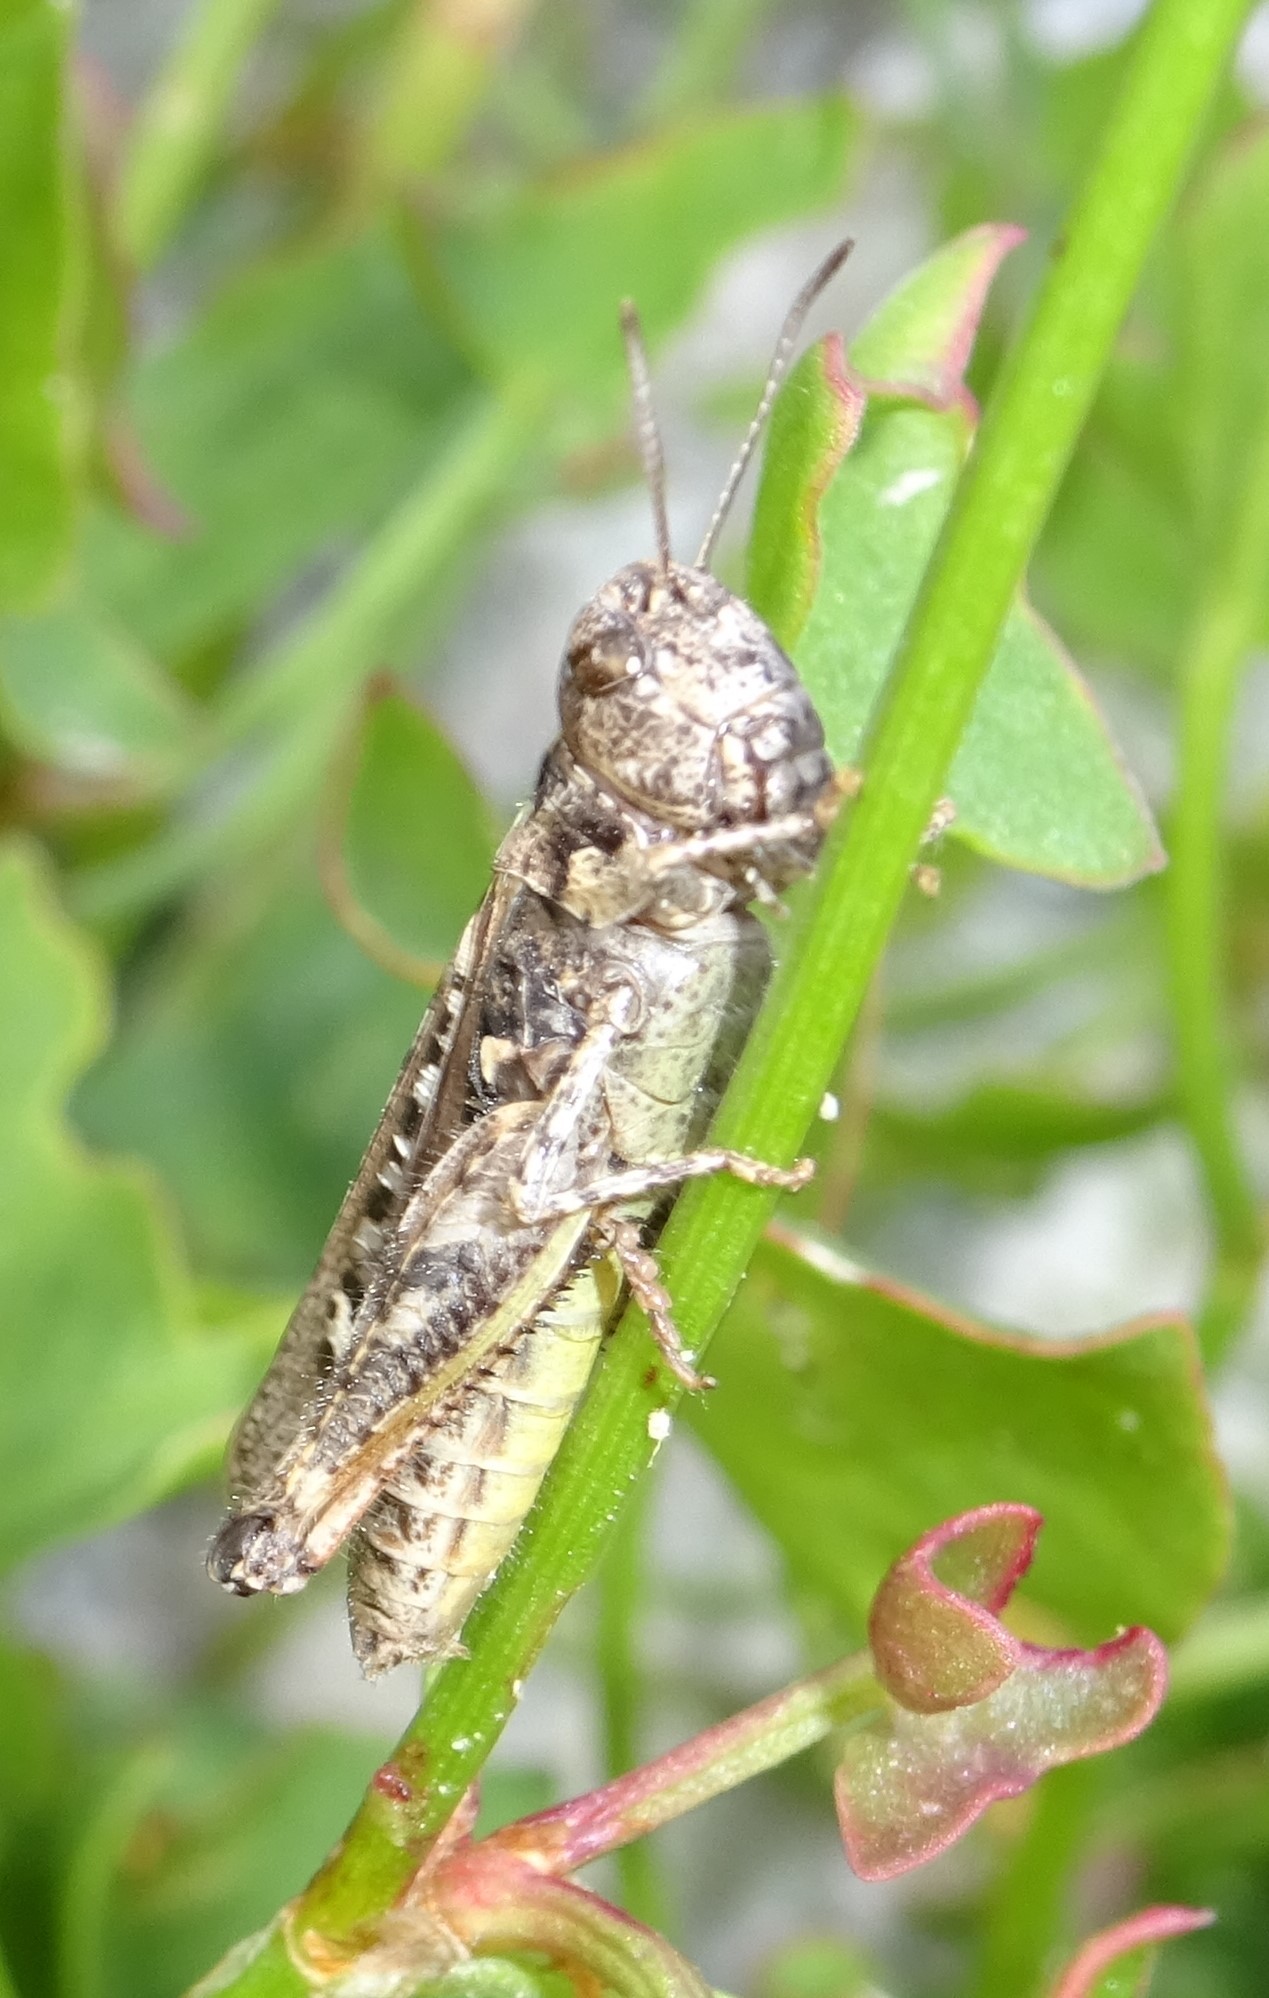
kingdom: Animalia
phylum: Arthropoda
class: Insecta
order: Orthoptera
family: Acrididae
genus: Myrmeleotettix
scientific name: Myrmeleotettix maculatus
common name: Mottled grasshopper
